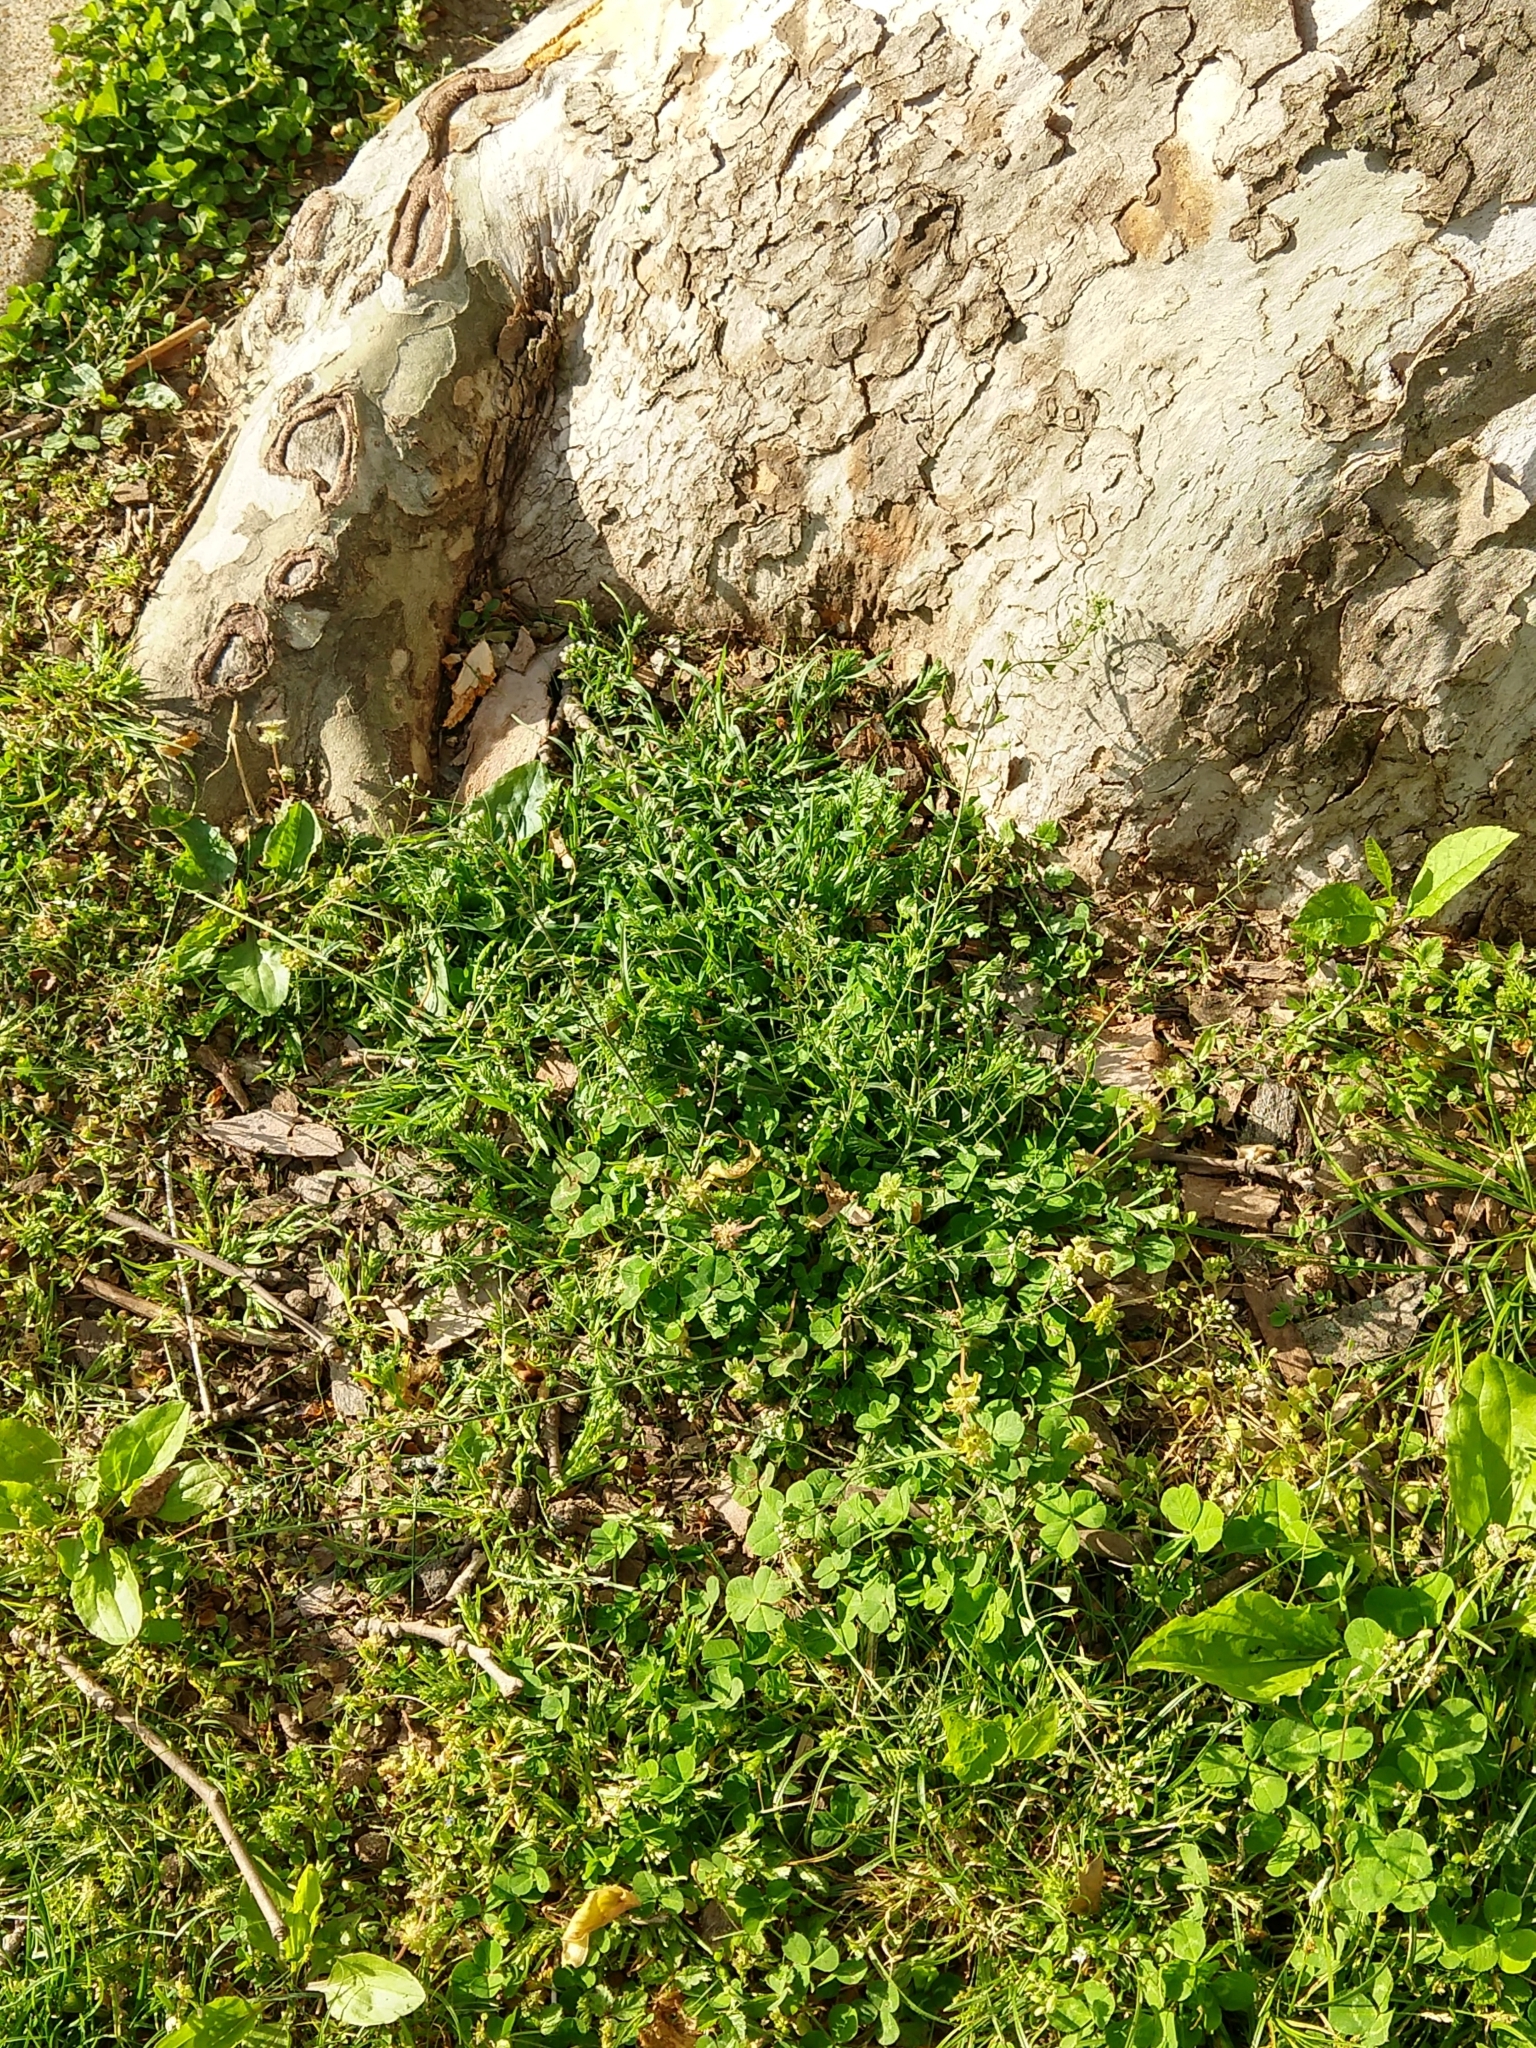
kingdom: Plantae
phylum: Tracheophyta
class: Magnoliopsida
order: Brassicales
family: Brassicaceae
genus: Capsella
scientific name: Capsella bursa-pastoris
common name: Shepherd's purse
